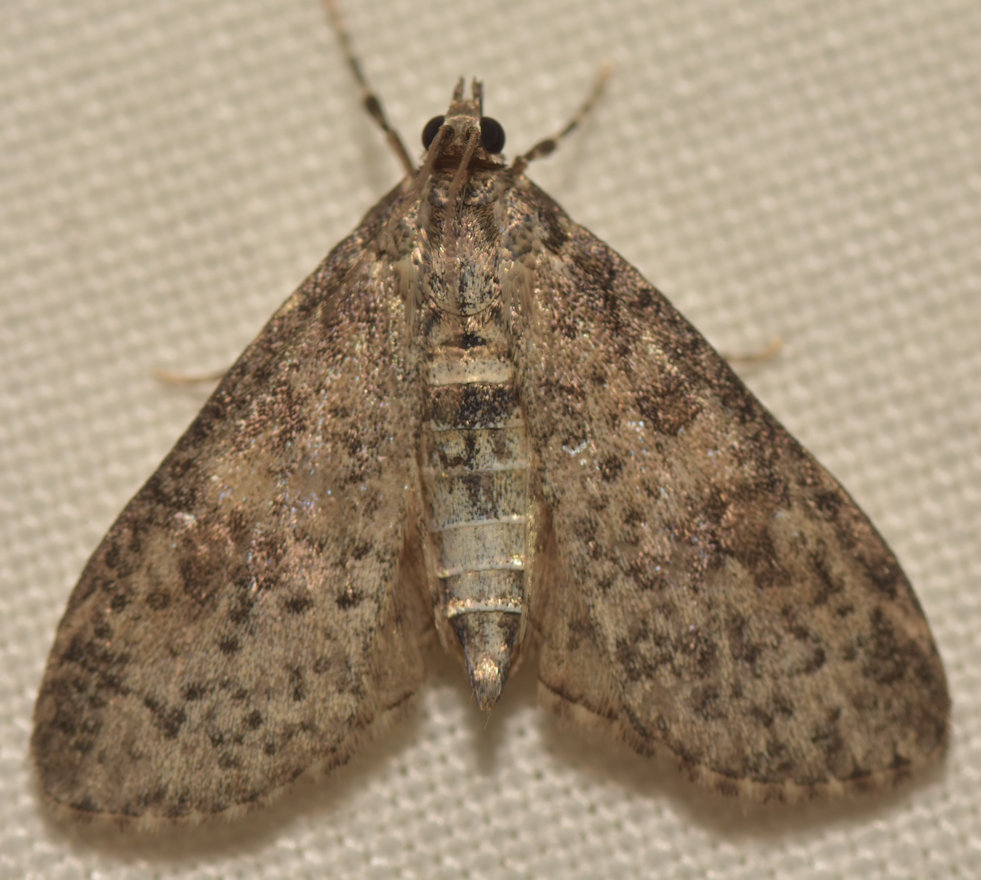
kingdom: Animalia
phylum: Arthropoda
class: Insecta
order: Lepidoptera
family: Crambidae
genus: Palpita
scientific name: Palpita arsaltealis
